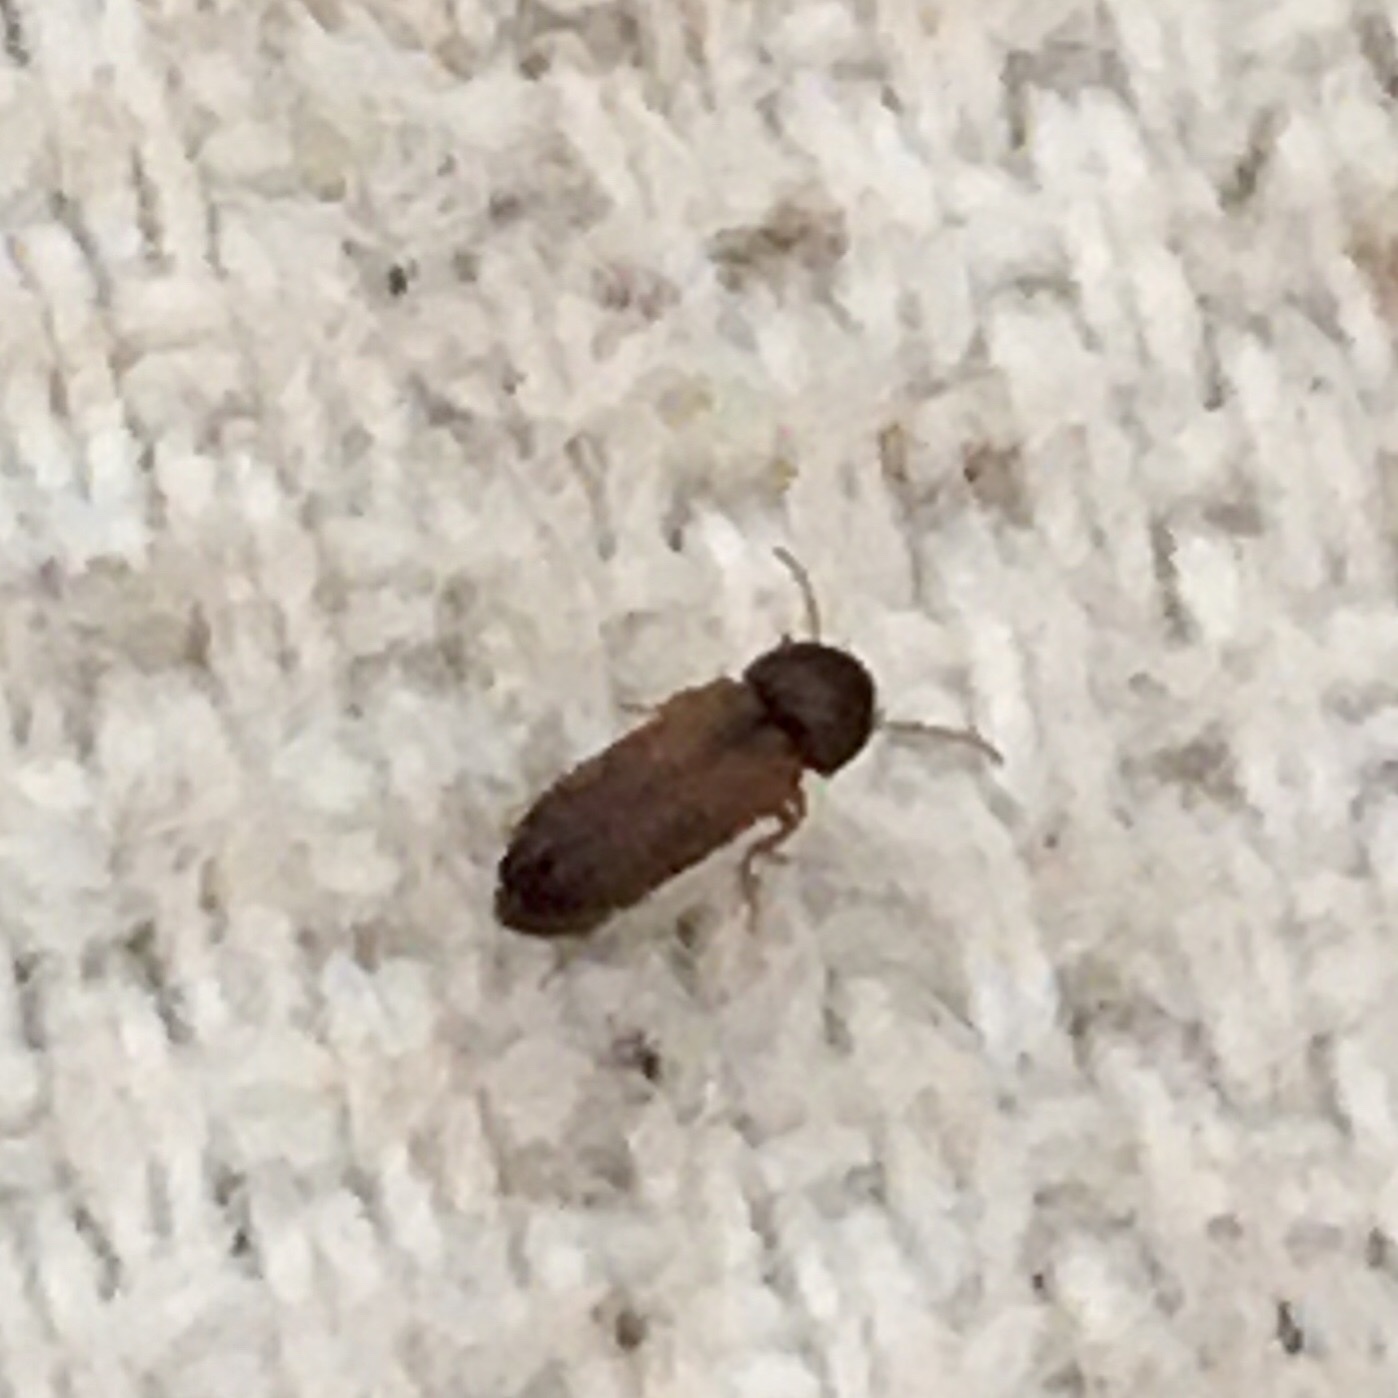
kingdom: Animalia
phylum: Arthropoda
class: Insecta
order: Coleoptera
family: Anobiidae
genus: Ptilinus
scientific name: Ptilinus
